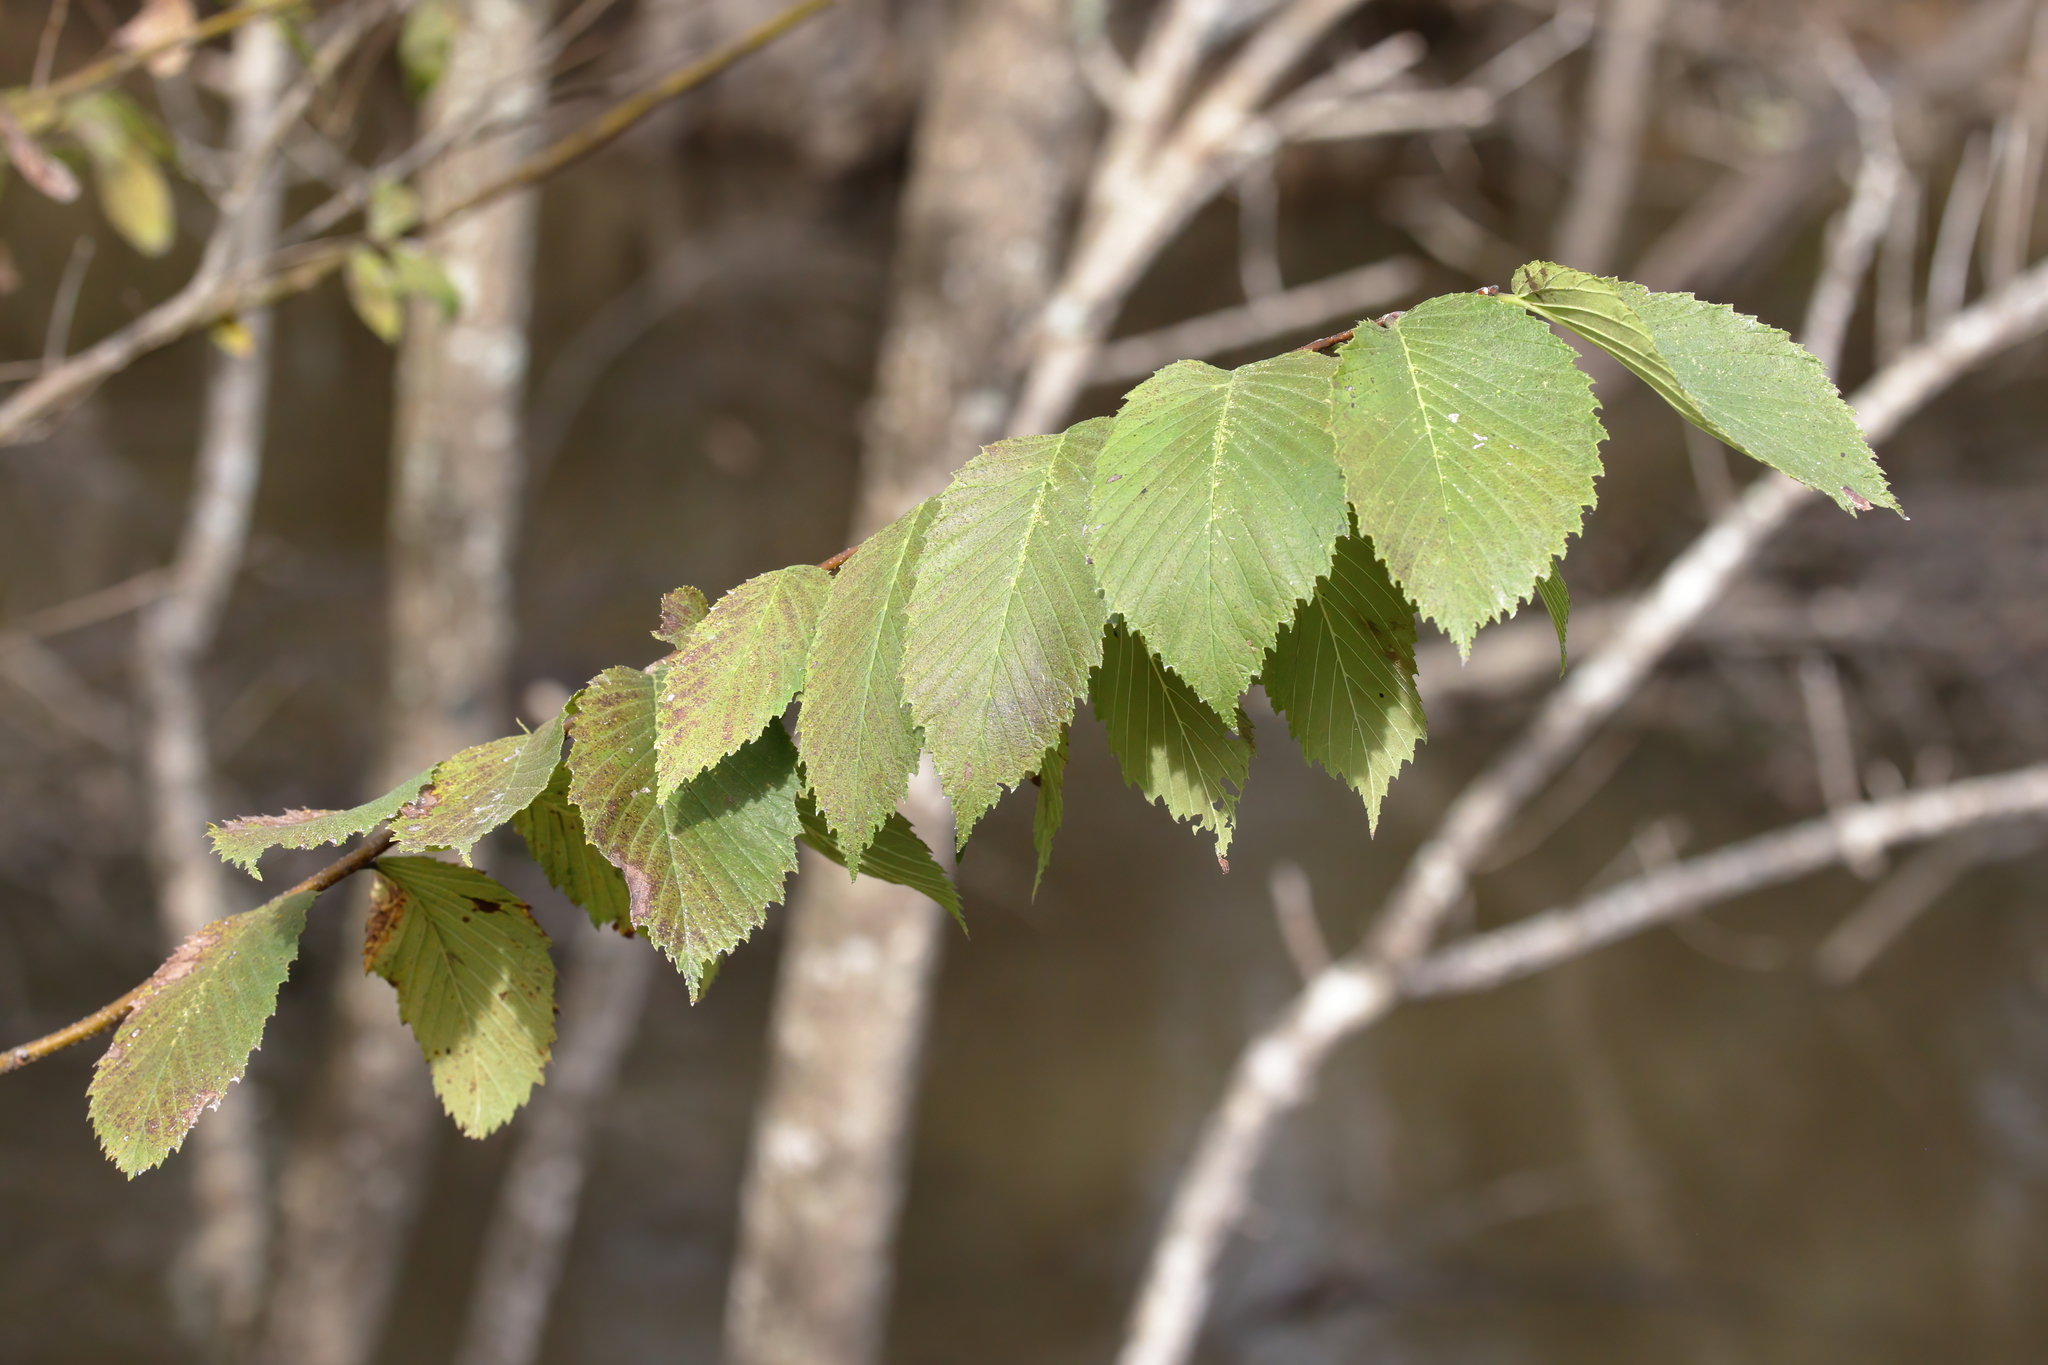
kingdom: Plantae
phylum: Tracheophyta
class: Magnoliopsida
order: Rosales
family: Ulmaceae
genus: Ulmus
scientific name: Ulmus americana
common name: American elm
